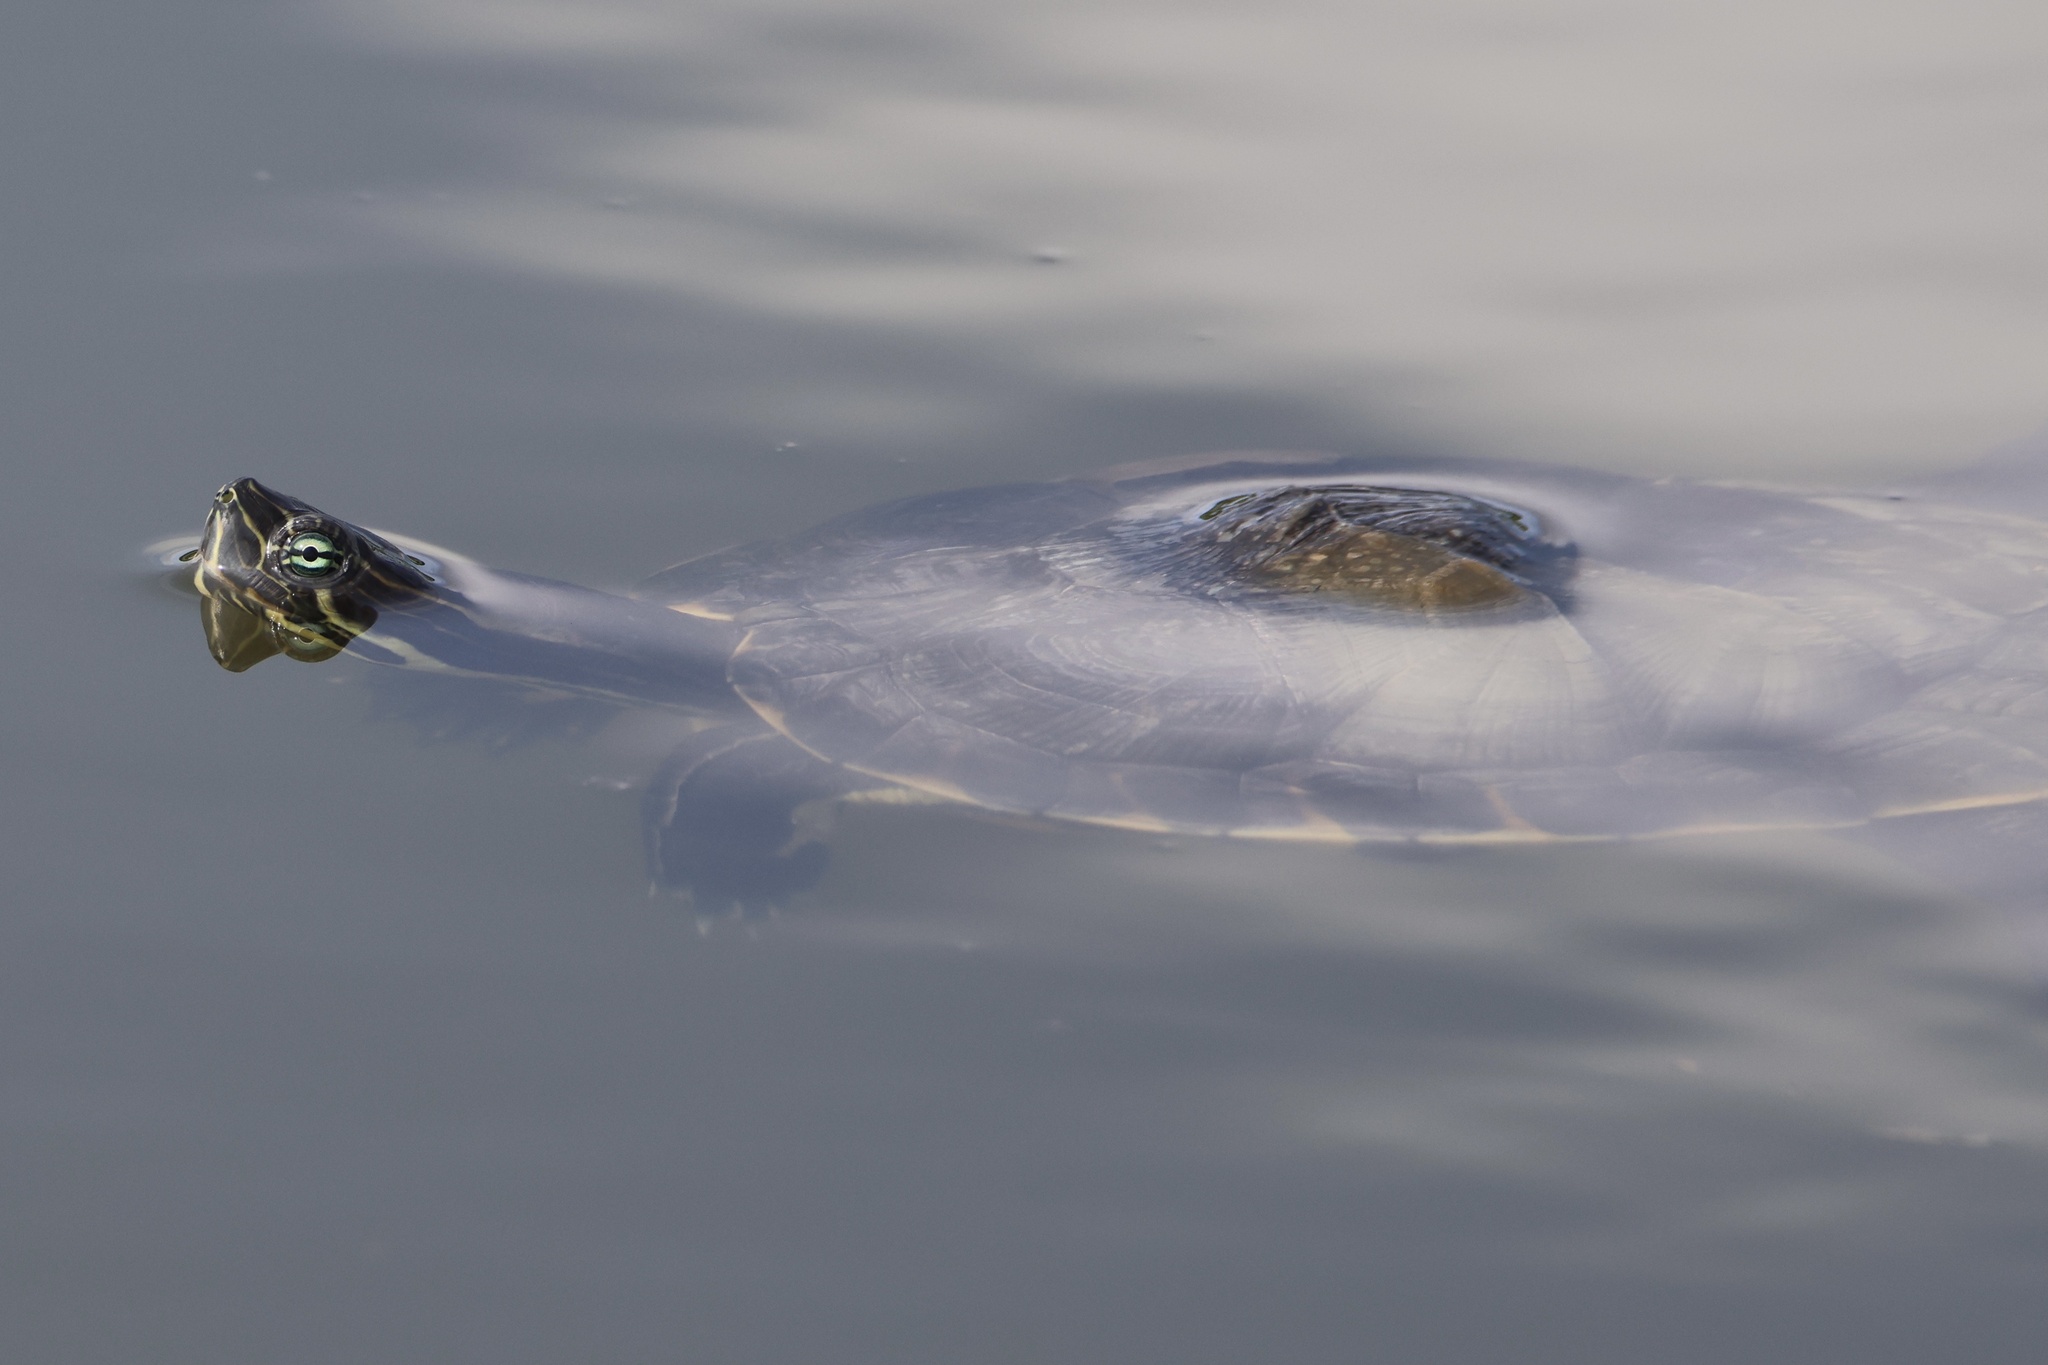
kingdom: Animalia
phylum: Chordata
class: Testudines
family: Emydidae
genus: Trachemys
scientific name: Trachemys grayi
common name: Gray's slider
